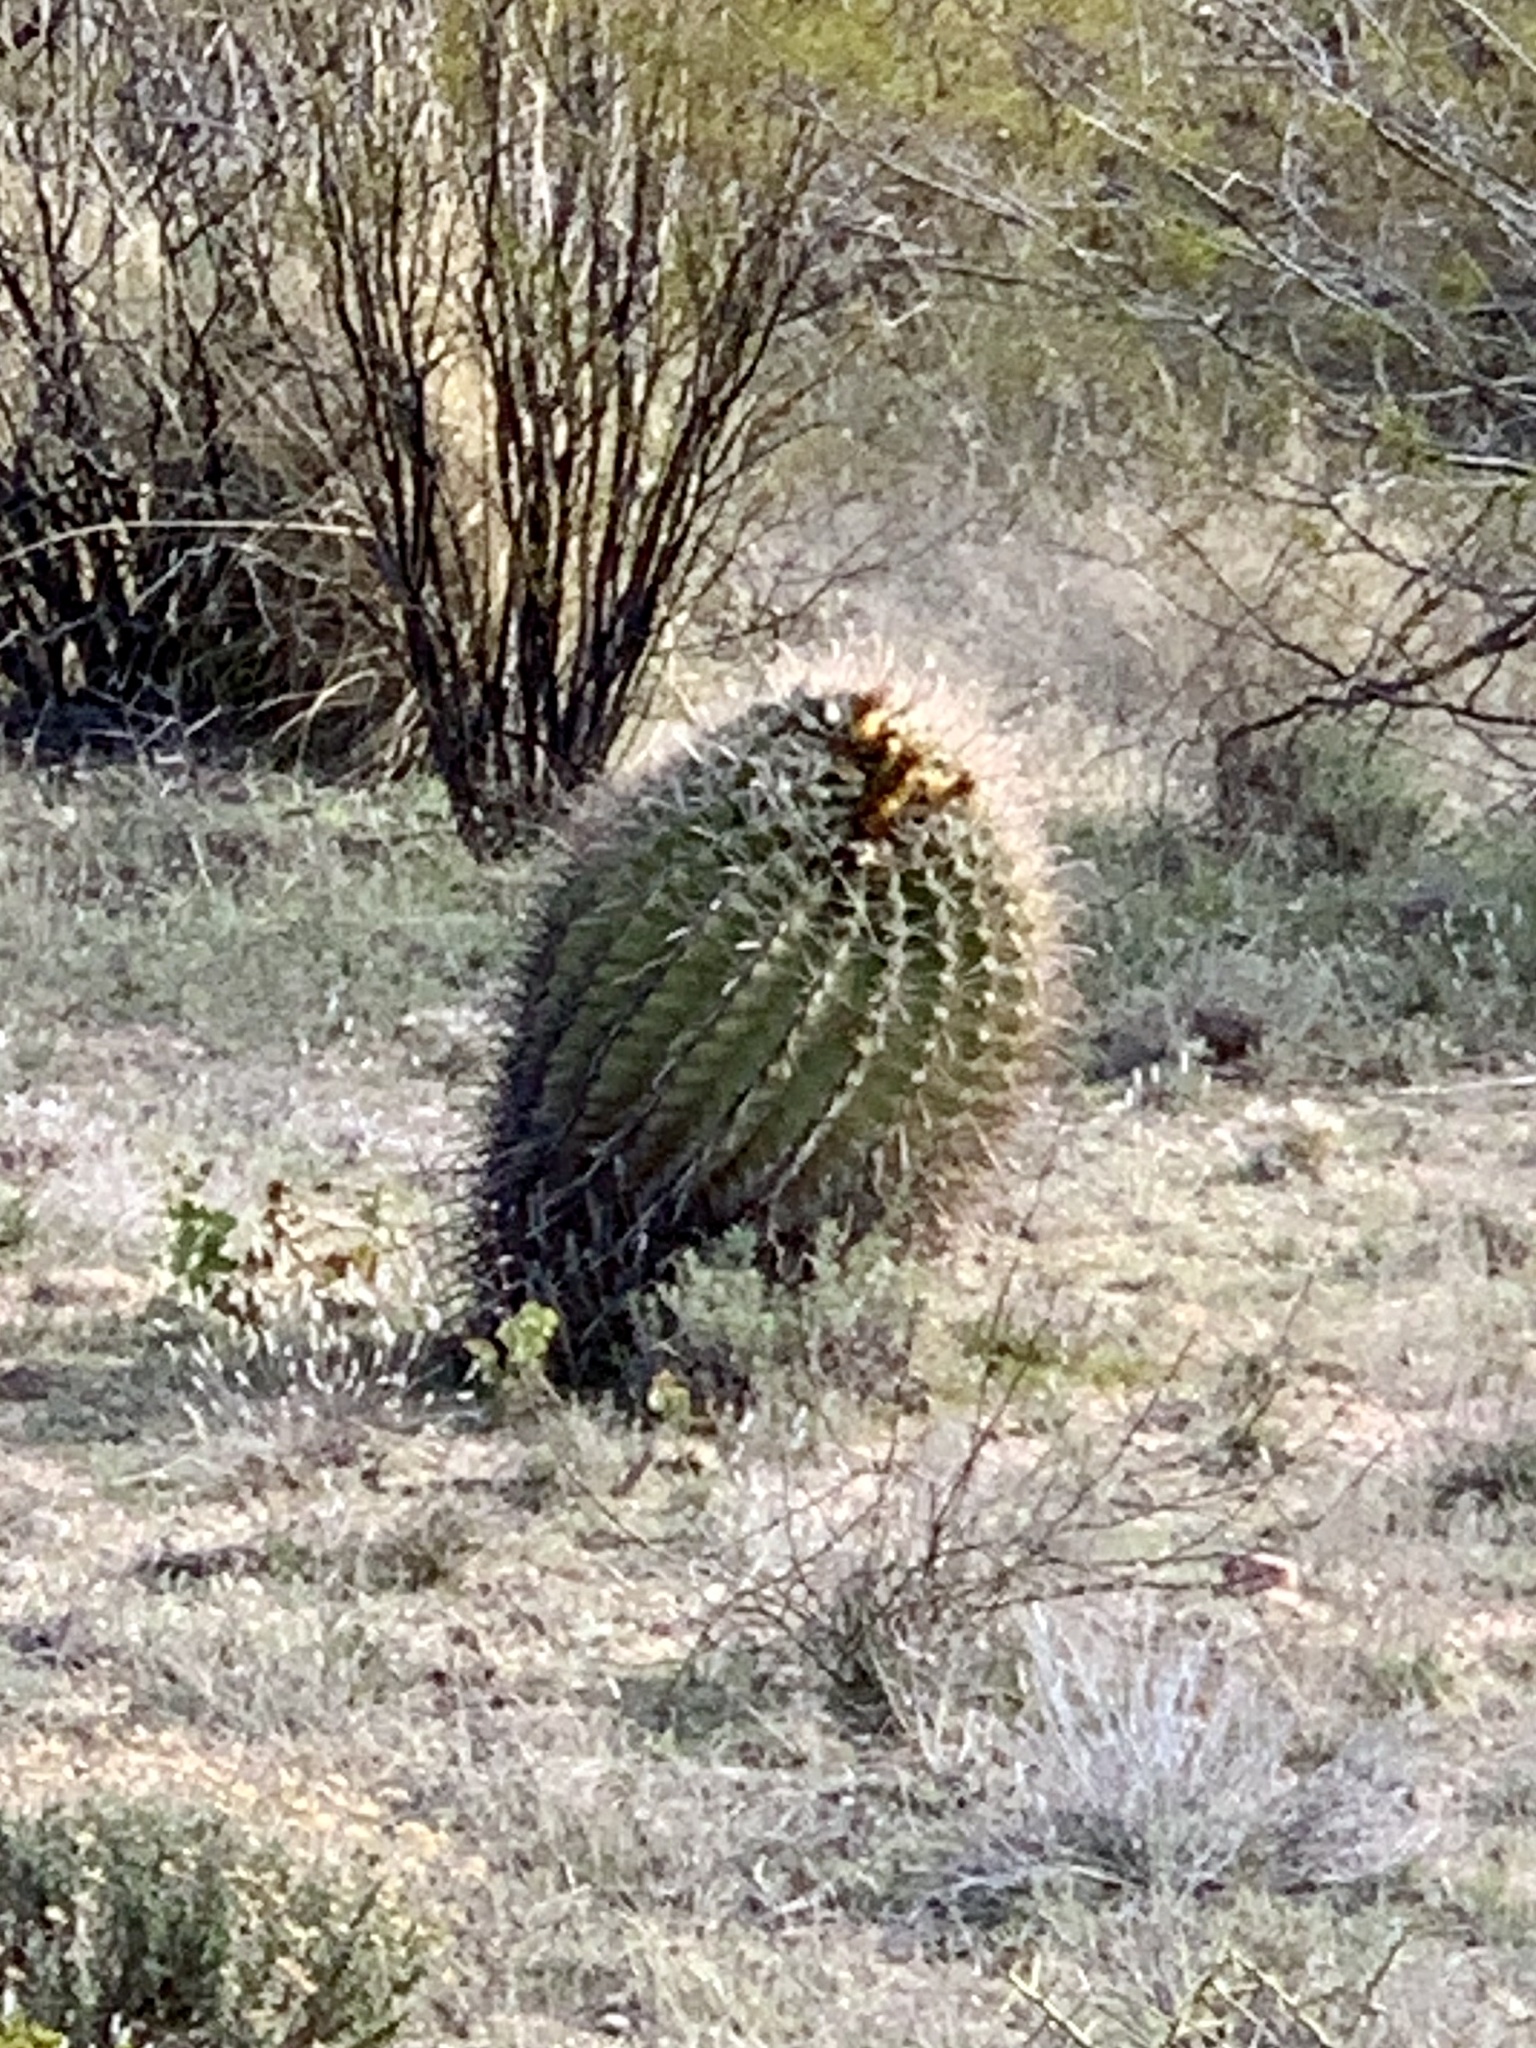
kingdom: Plantae
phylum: Tracheophyta
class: Magnoliopsida
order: Caryophyllales
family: Cactaceae
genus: Ferocactus
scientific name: Ferocactus wislizeni
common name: Candy barrel cactus
